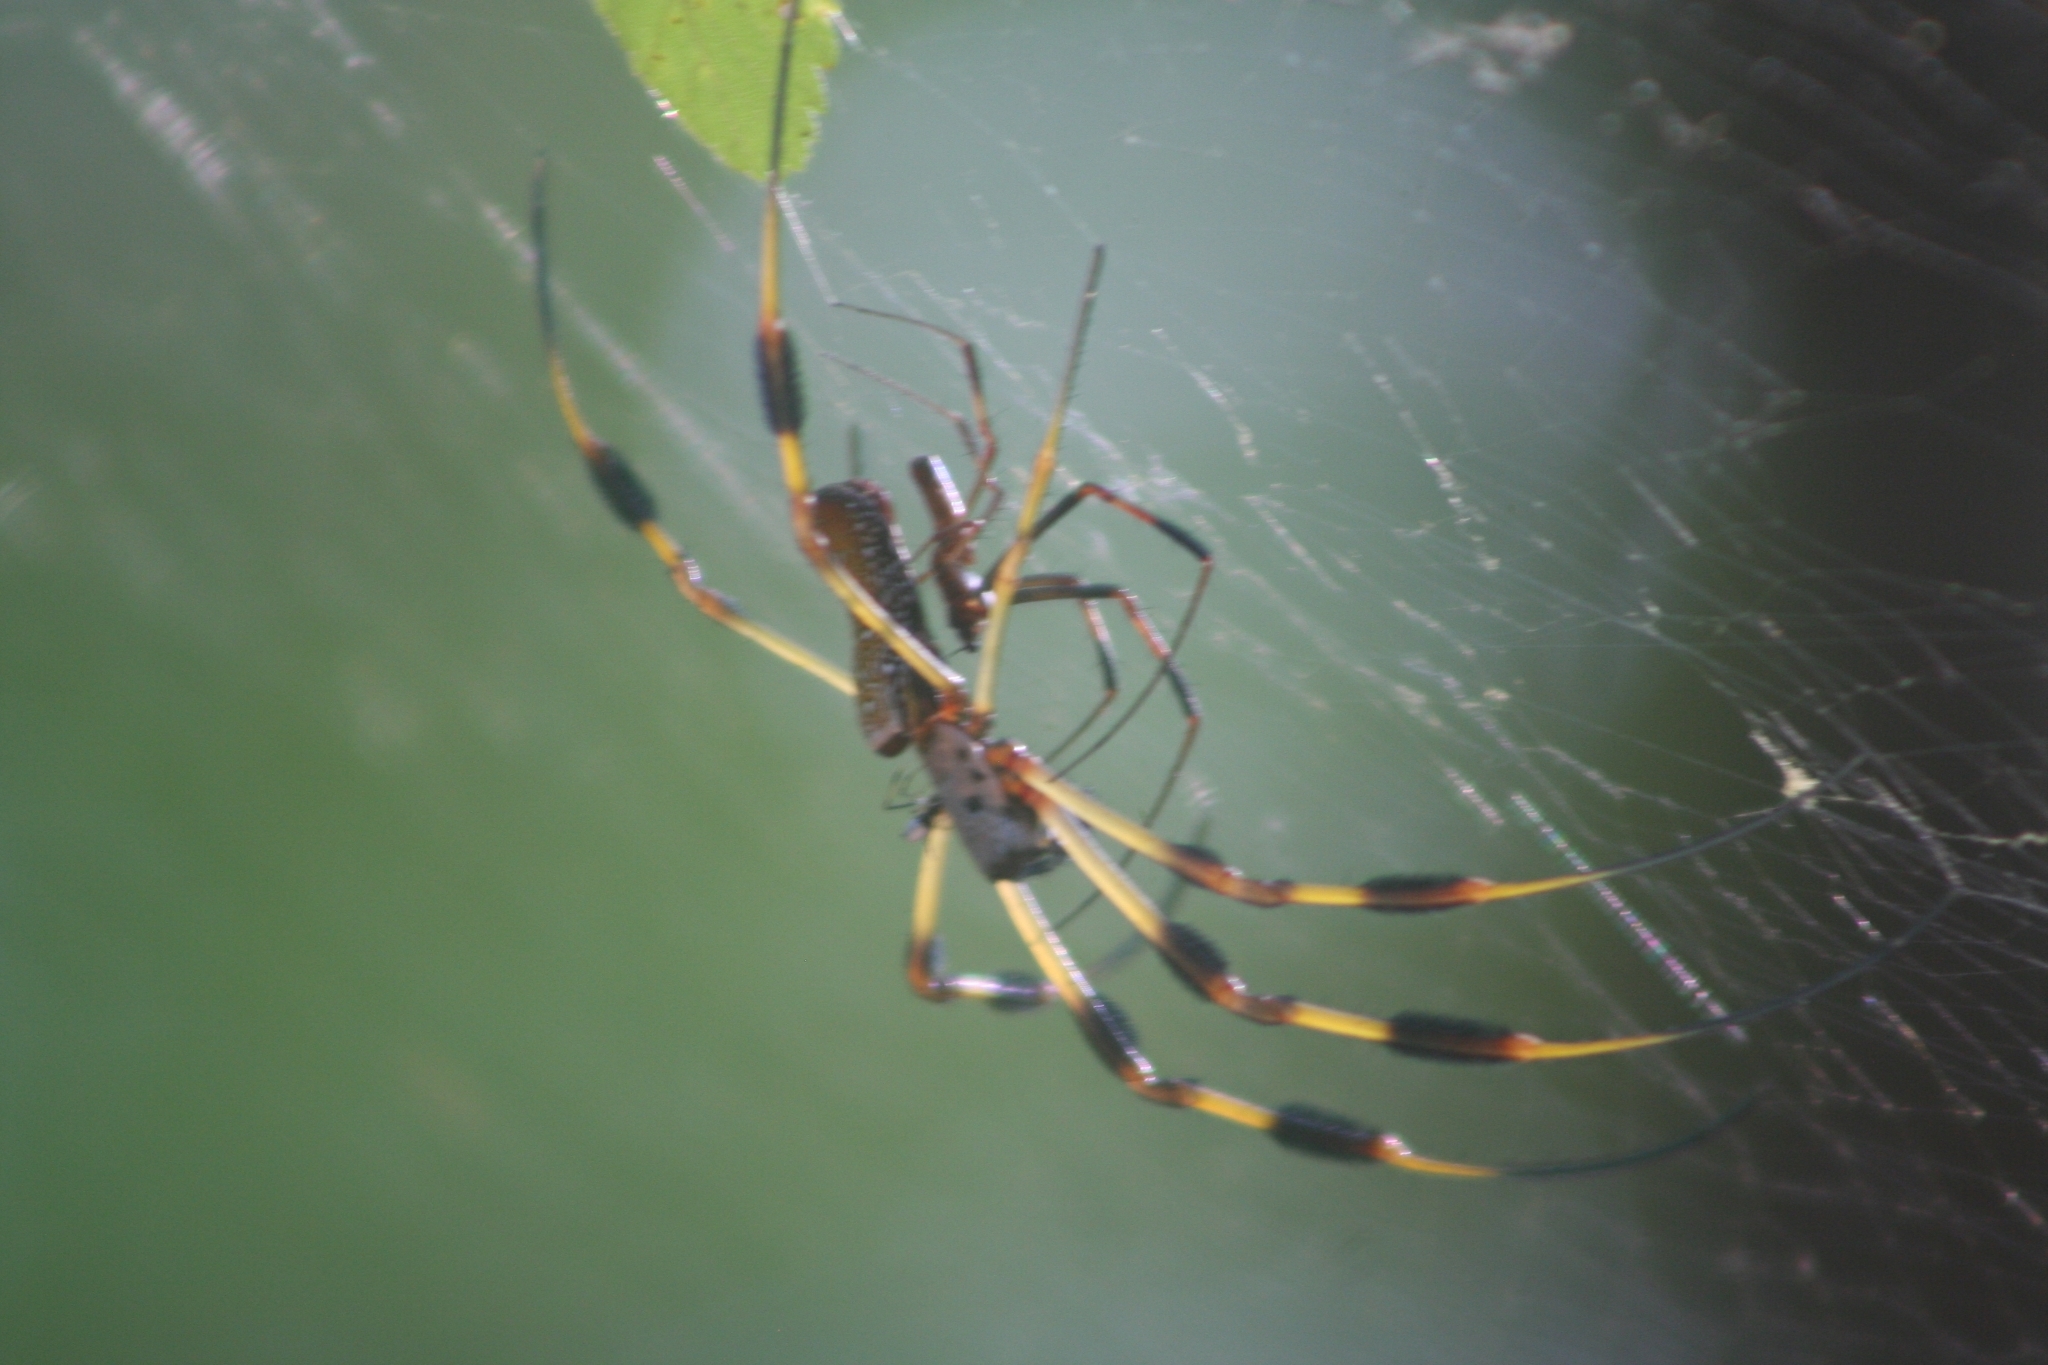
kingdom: Animalia
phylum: Arthropoda
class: Arachnida
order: Araneae
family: Araneidae
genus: Trichonephila
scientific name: Trichonephila clavipes
